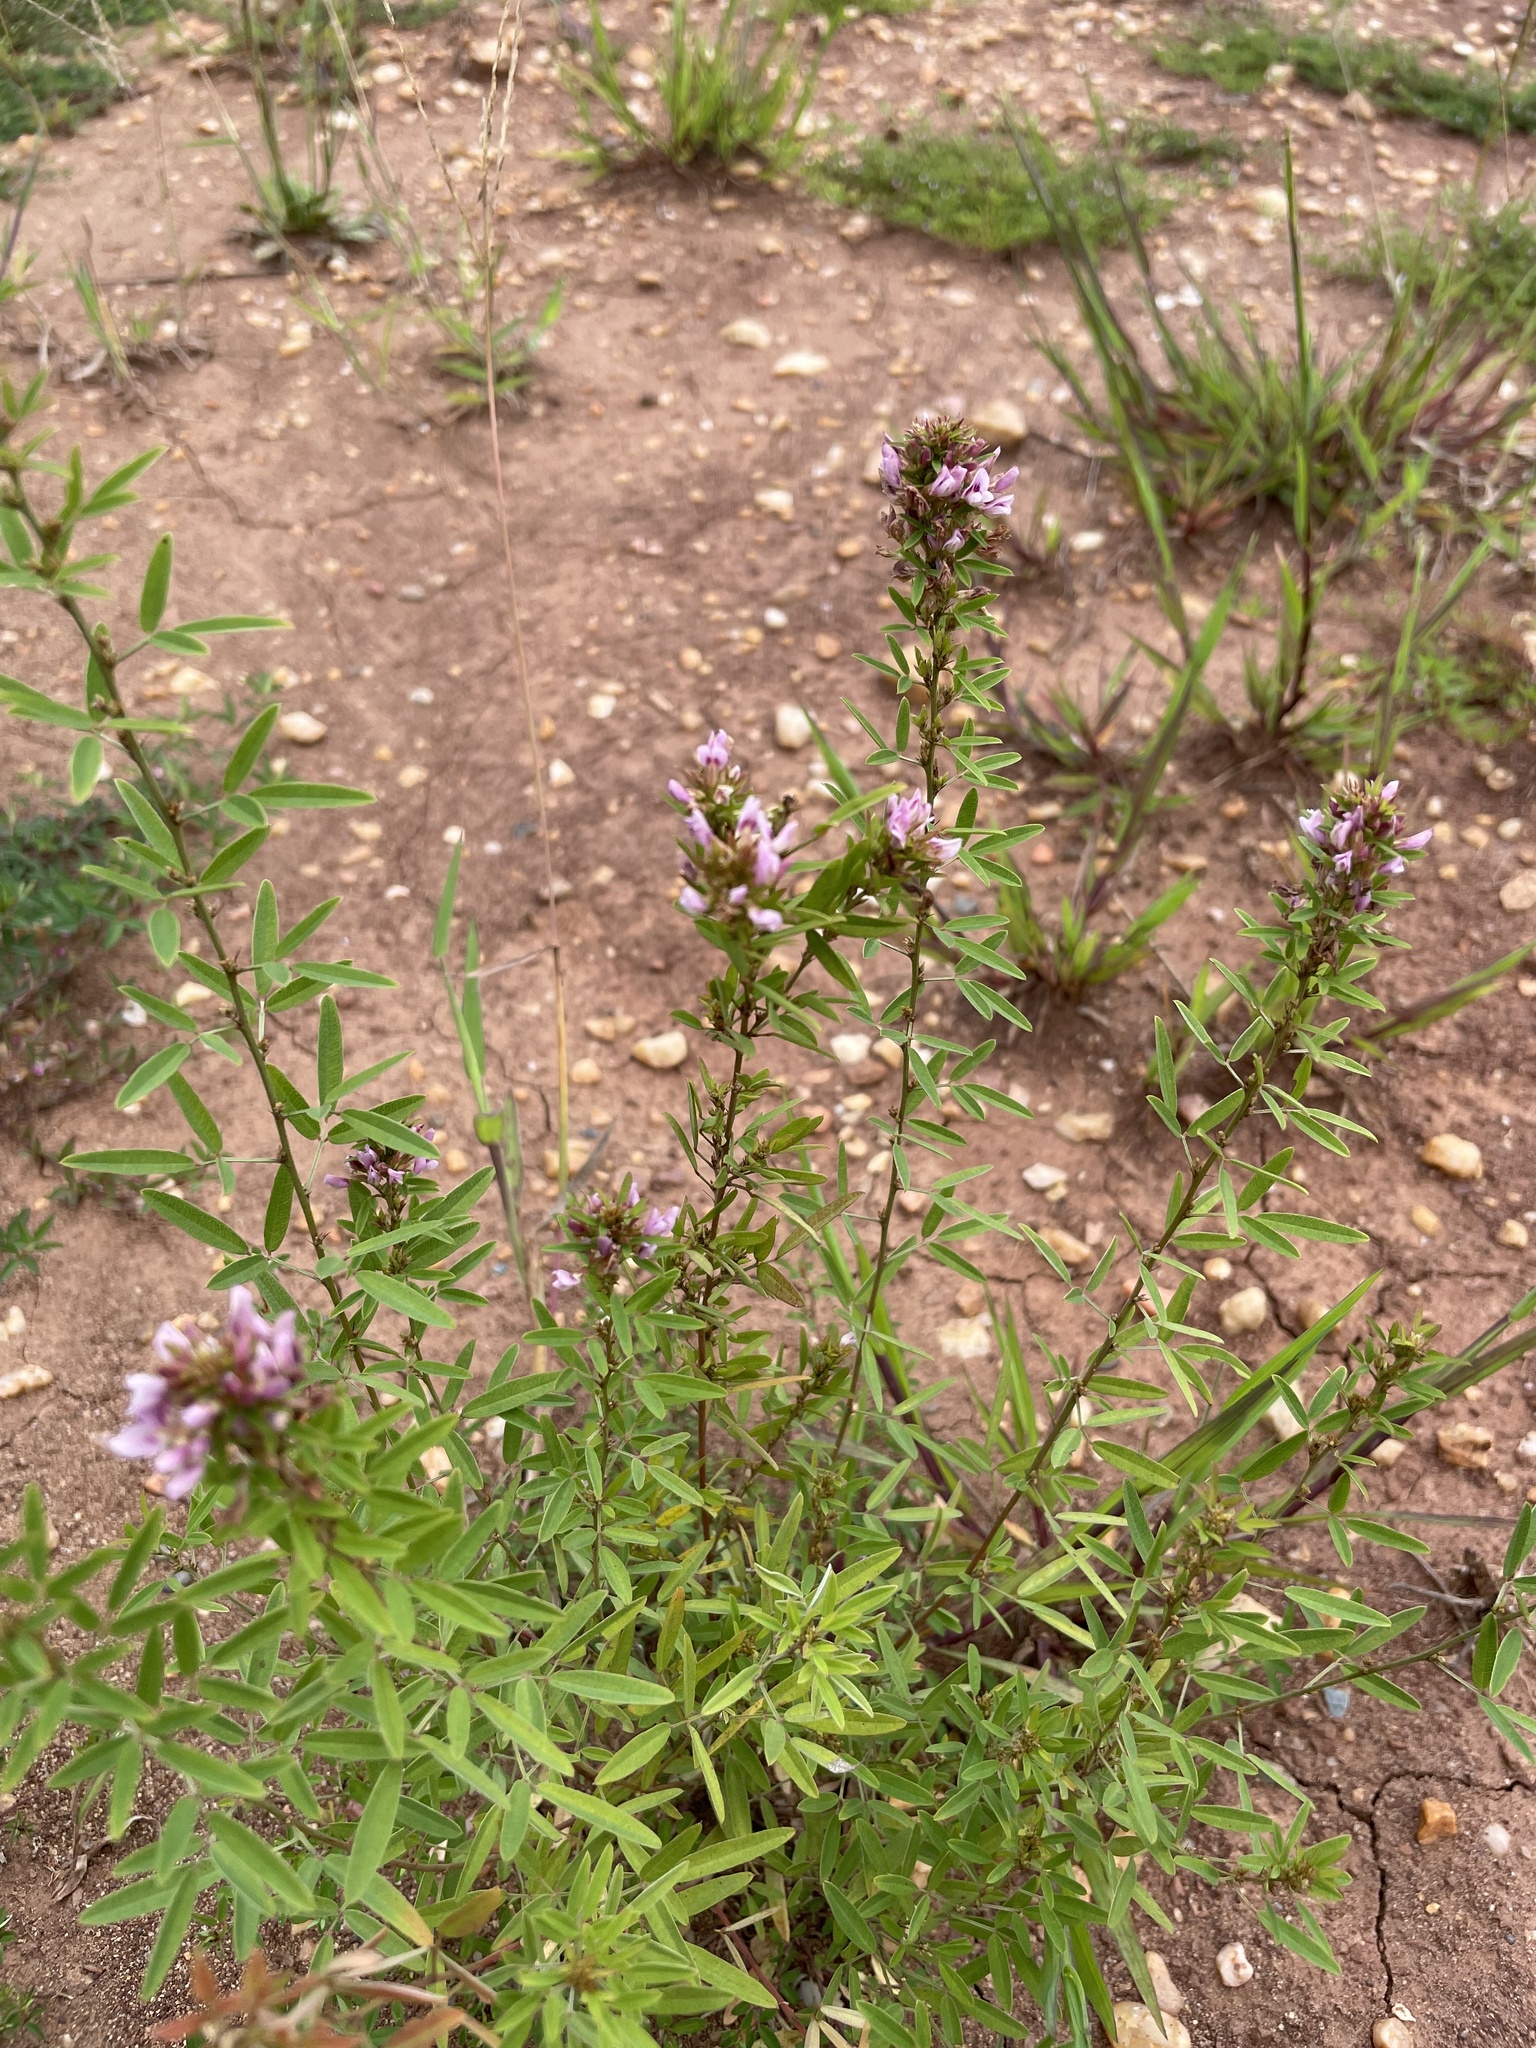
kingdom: Plantae
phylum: Tracheophyta
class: Magnoliopsida
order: Fabales
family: Fabaceae
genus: Lespedeza
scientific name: Lespedeza virginica
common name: Slender bush-clover
